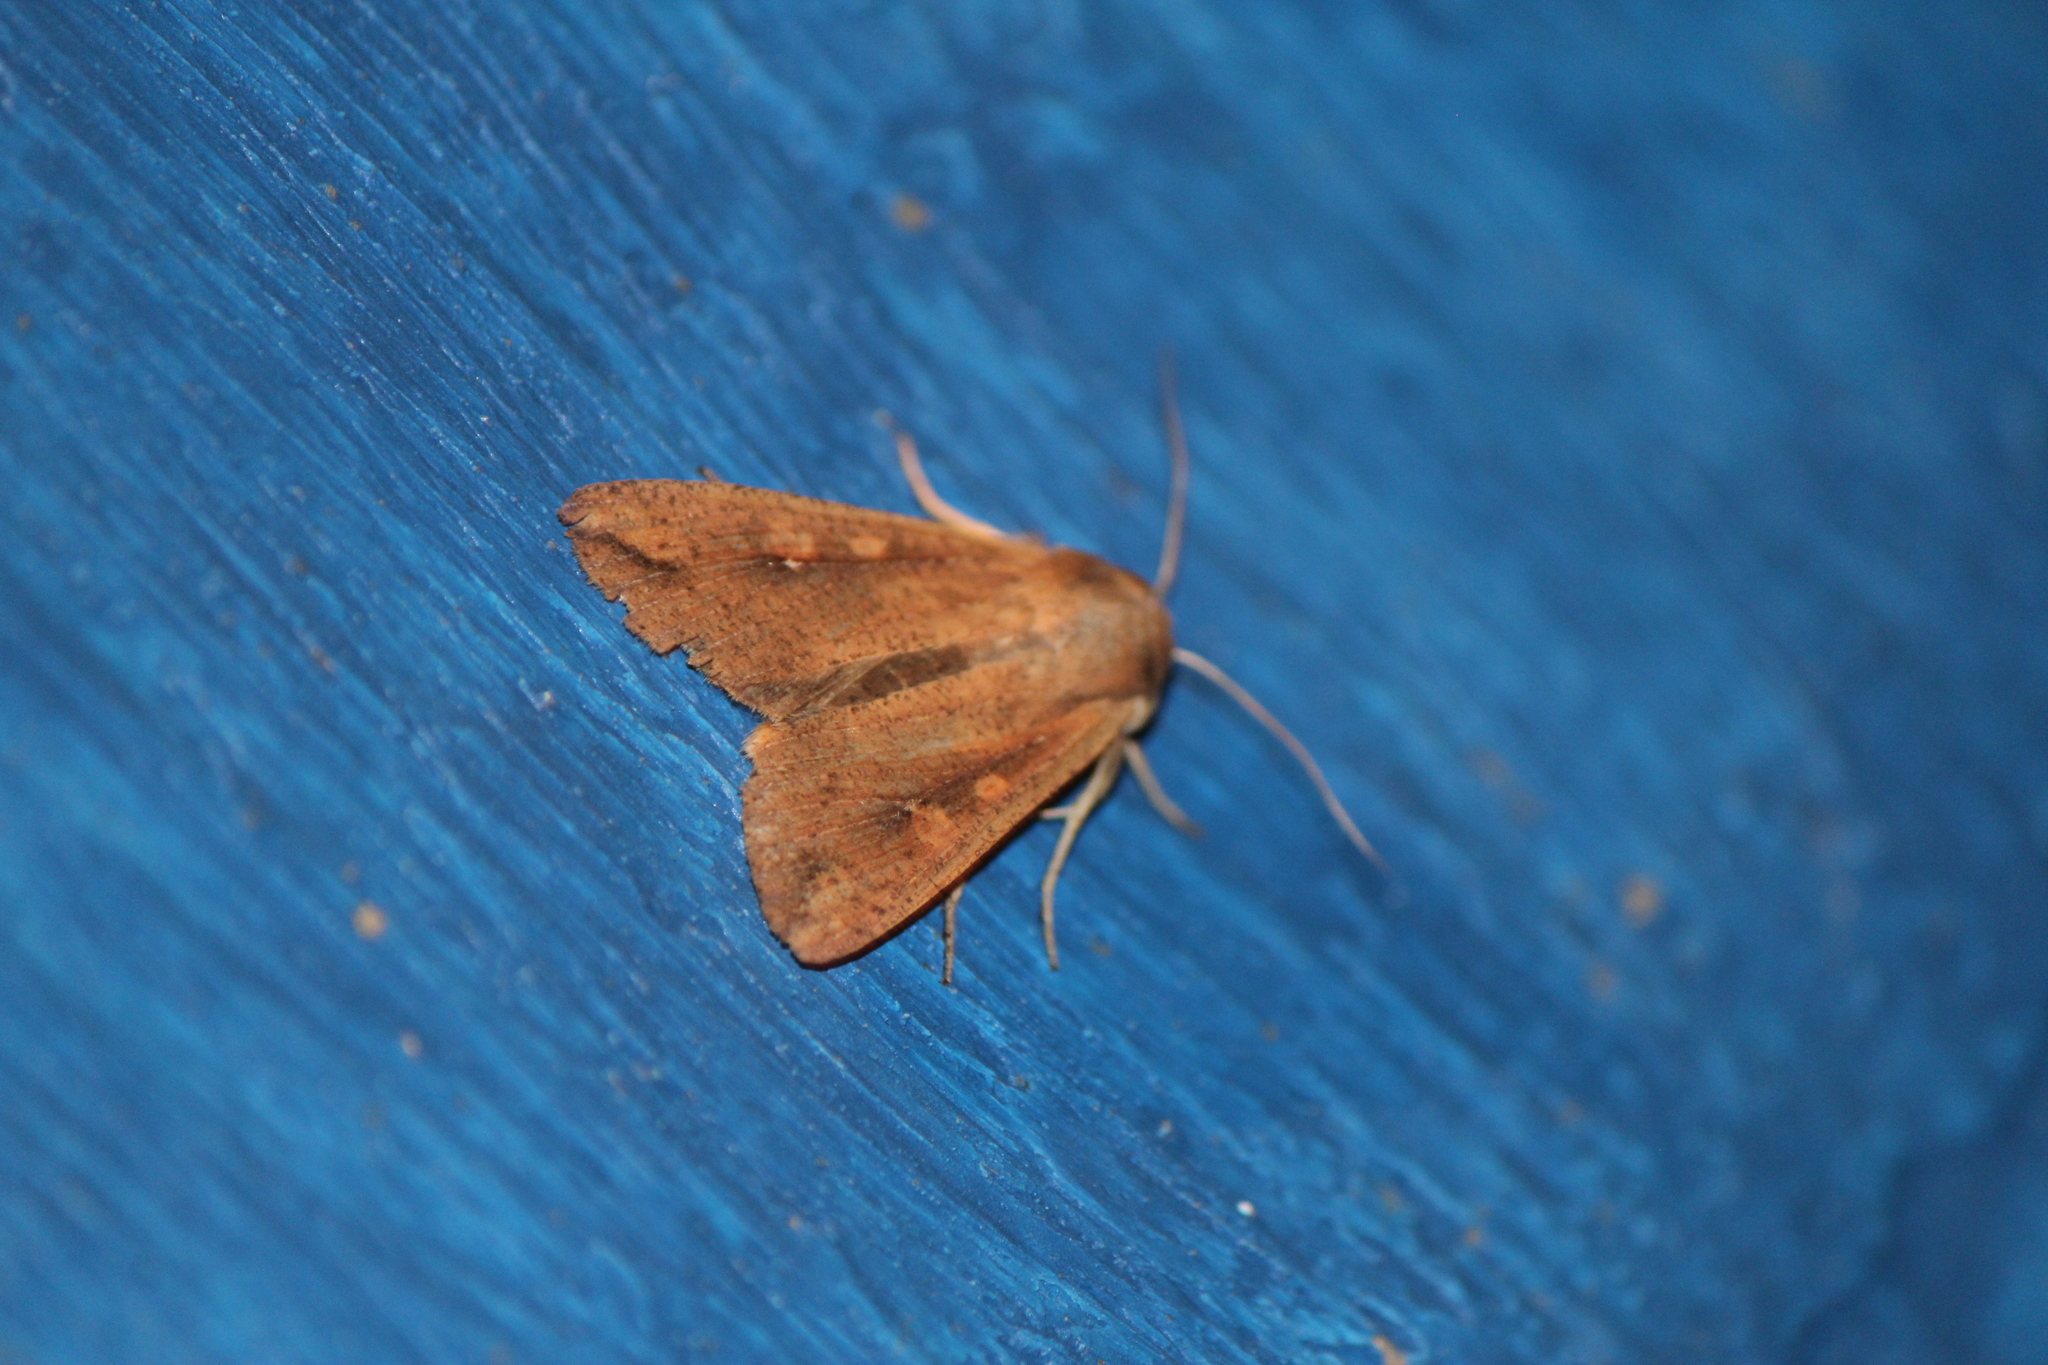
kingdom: Animalia
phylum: Arthropoda
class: Insecta
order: Lepidoptera
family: Noctuidae
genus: Mythimna
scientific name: Mythimna unipuncta
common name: White-speck
